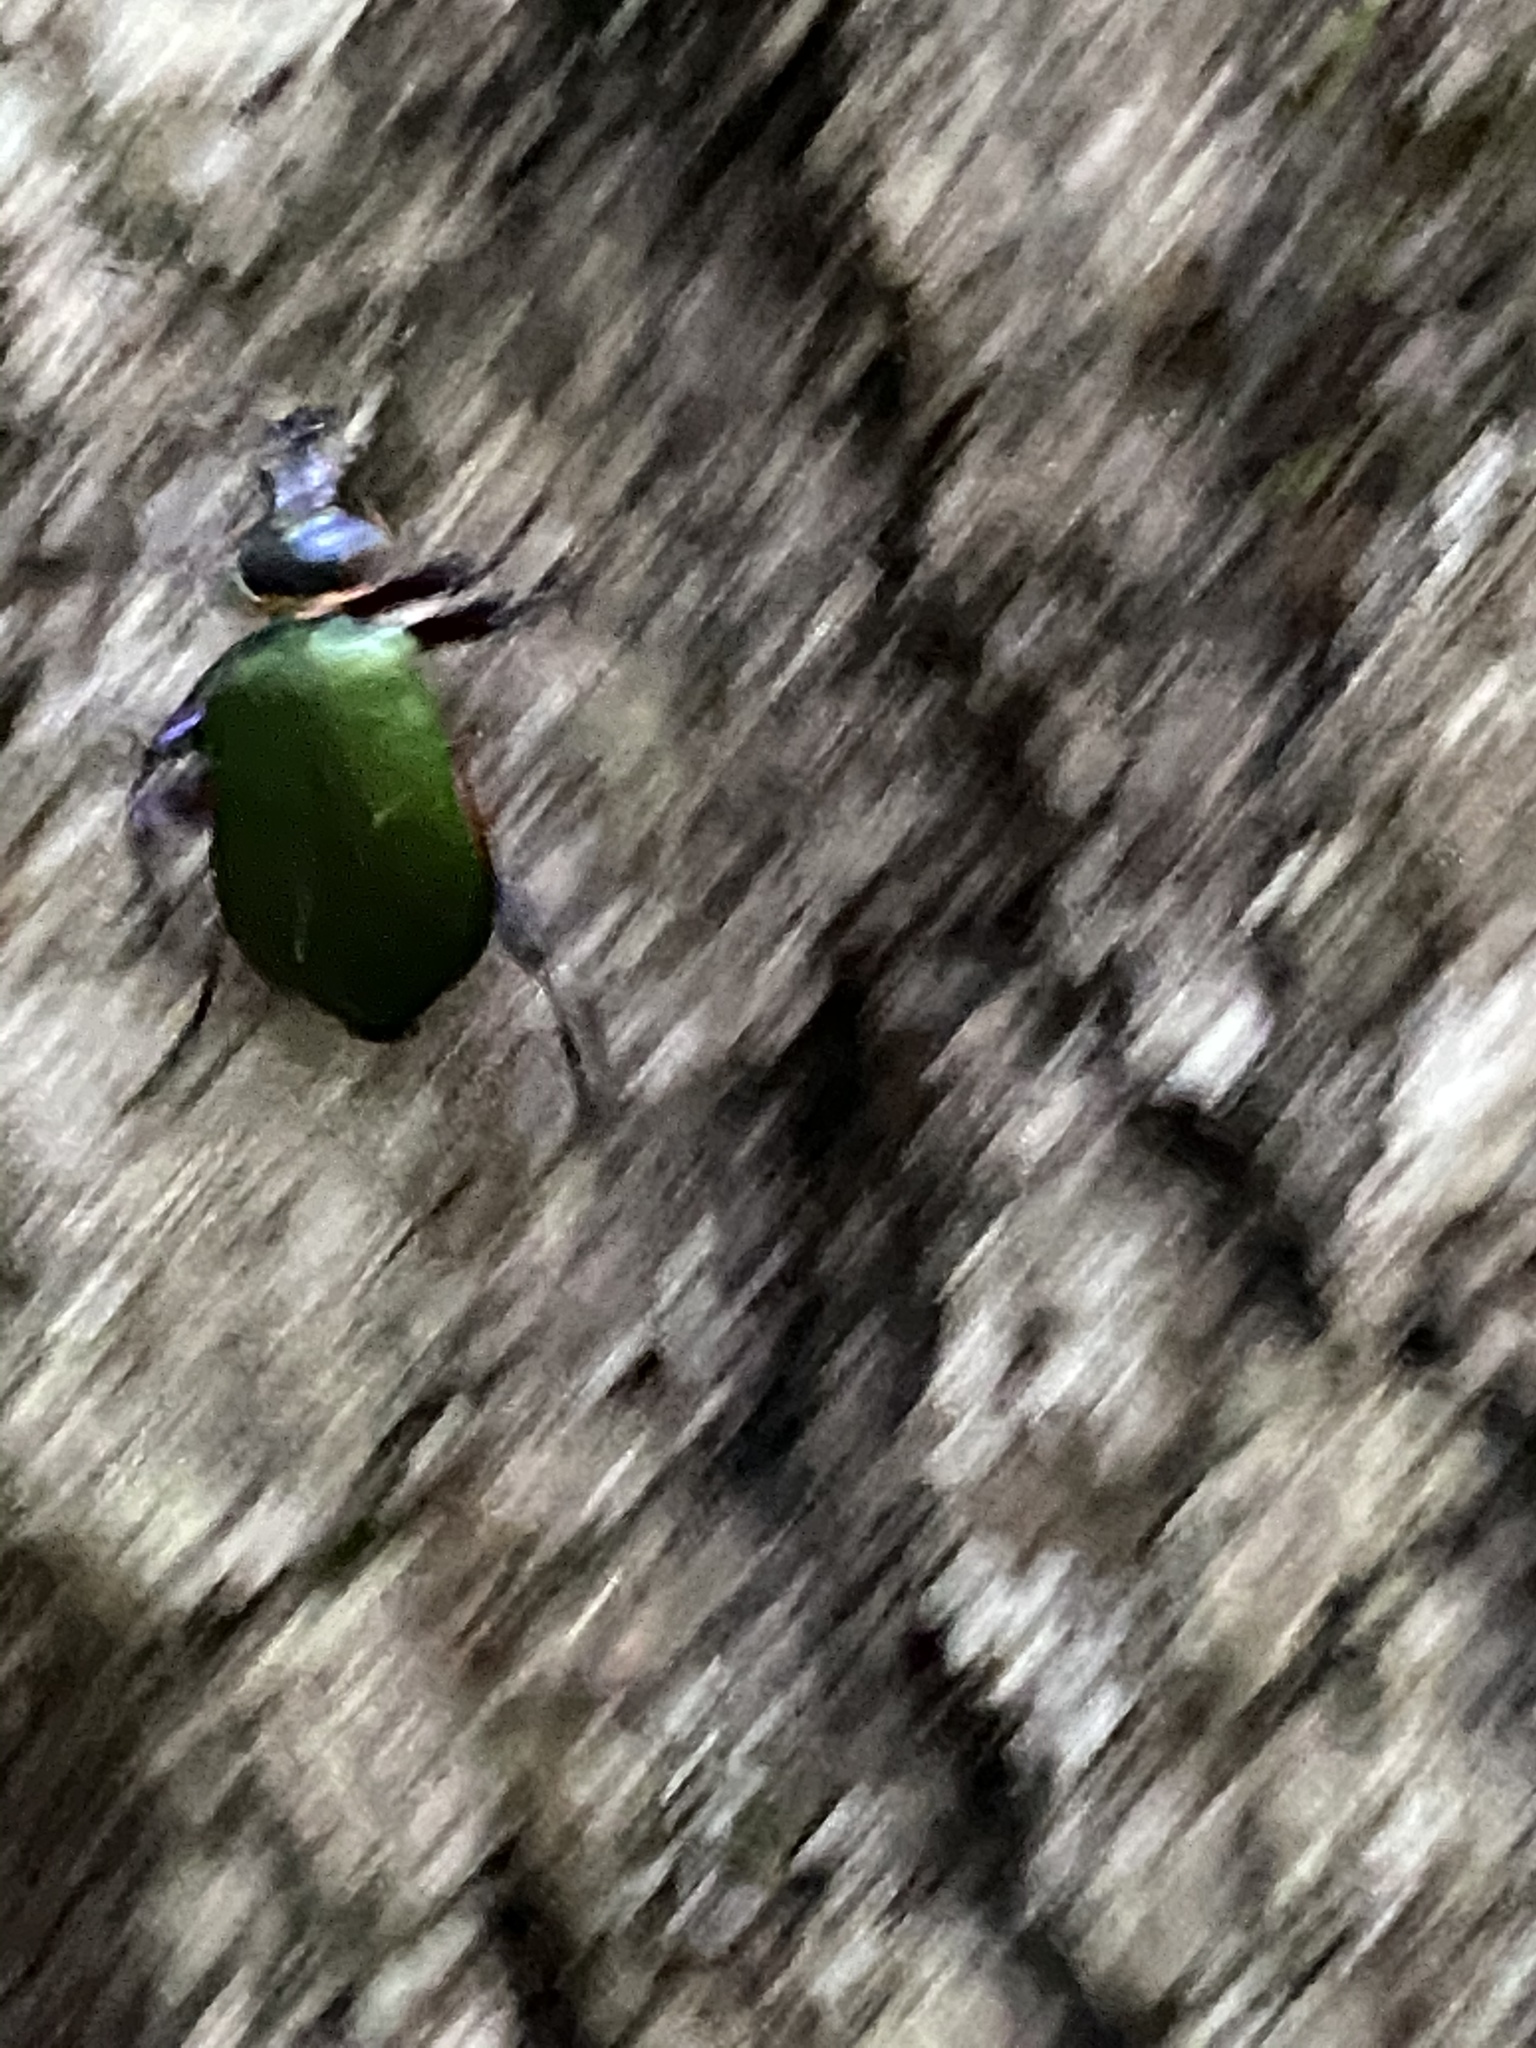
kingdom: Animalia
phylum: Arthropoda
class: Insecta
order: Coleoptera
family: Carabidae
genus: Calosoma
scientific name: Calosoma scrutator
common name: Fiery searcher beetle
